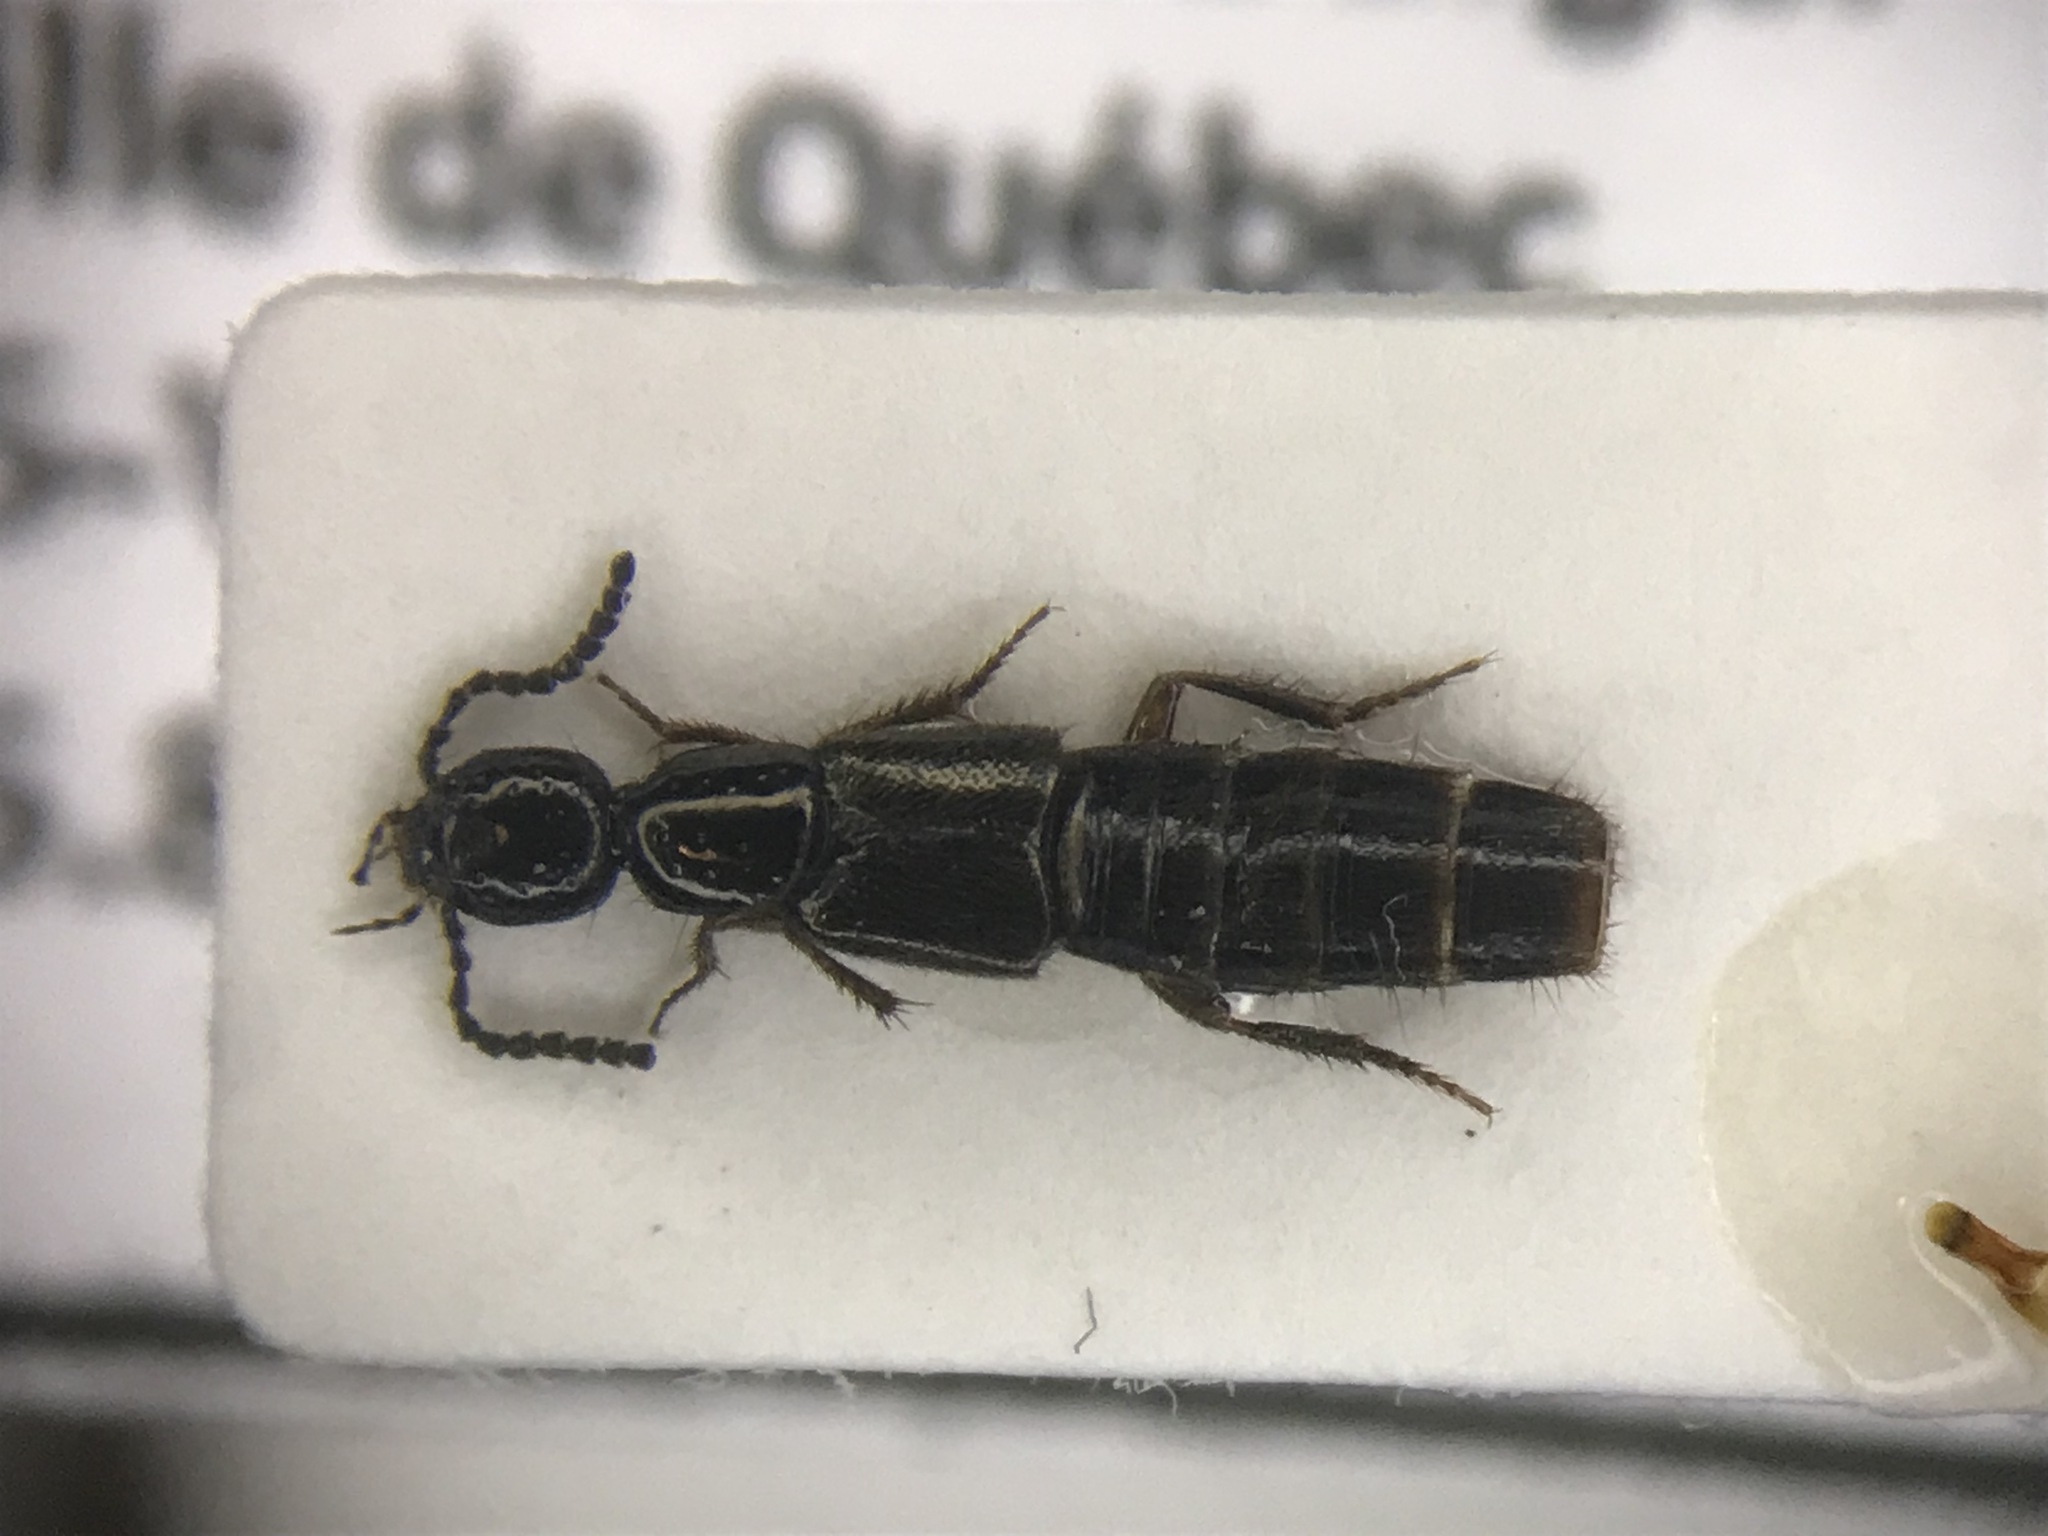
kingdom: Animalia
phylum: Arthropoda
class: Insecta
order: Coleoptera
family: Staphylinidae
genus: Bisnius
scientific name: Bisnius fimetarius
